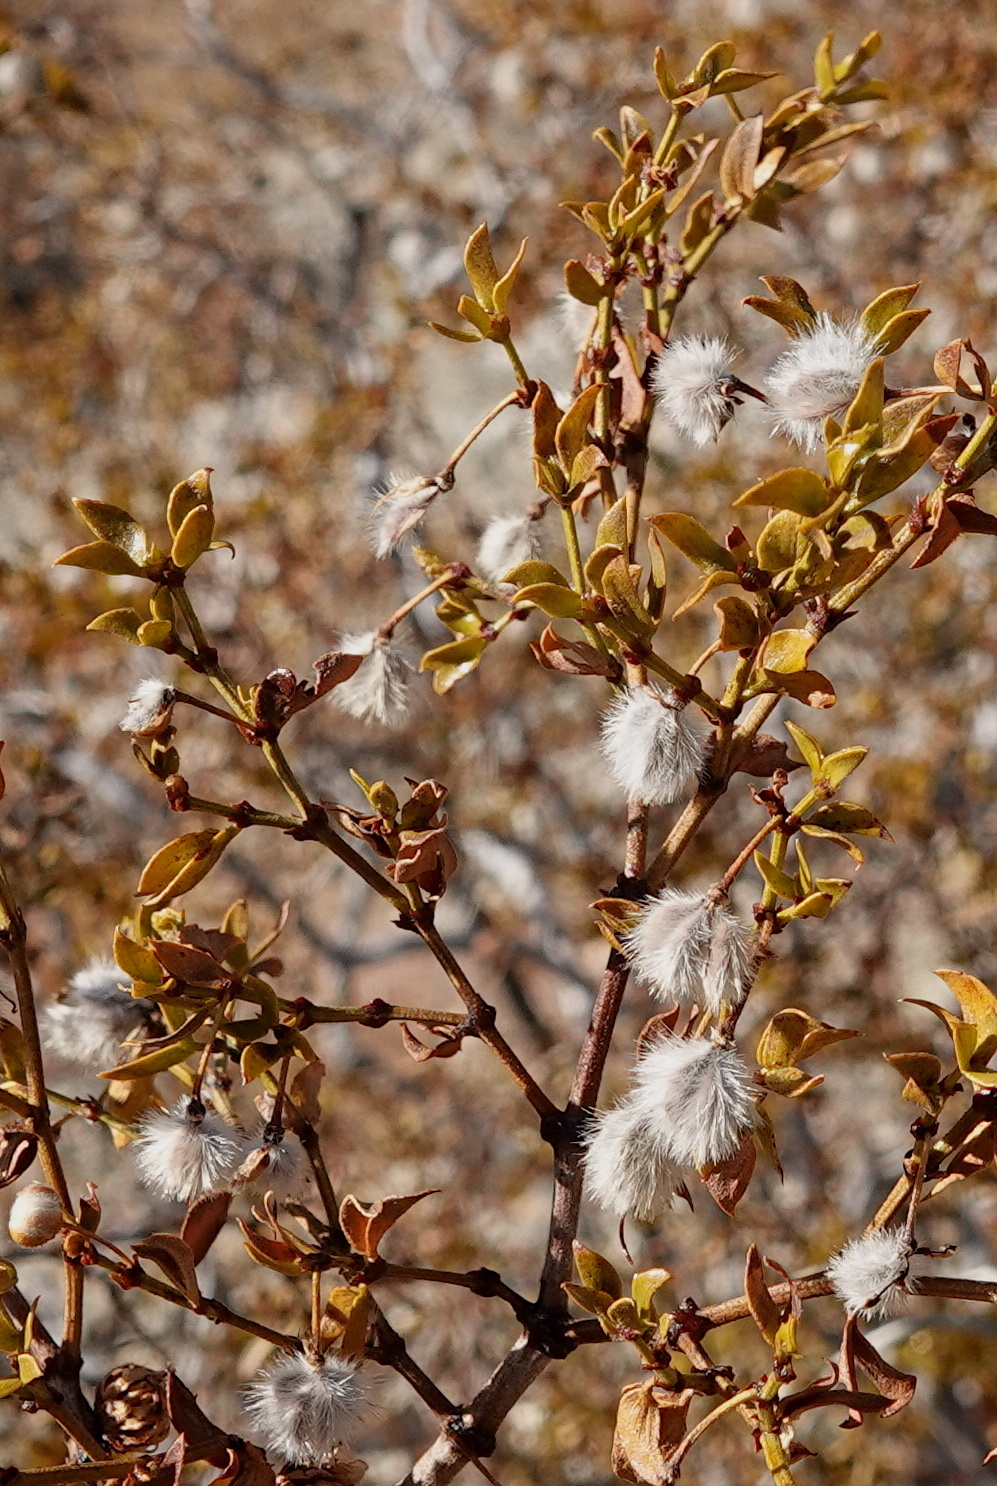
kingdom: Plantae
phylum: Tracheophyta
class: Magnoliopsida
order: Zygophyllales
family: Zygophyllaceae
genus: Larrea
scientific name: Larrea tridentata
